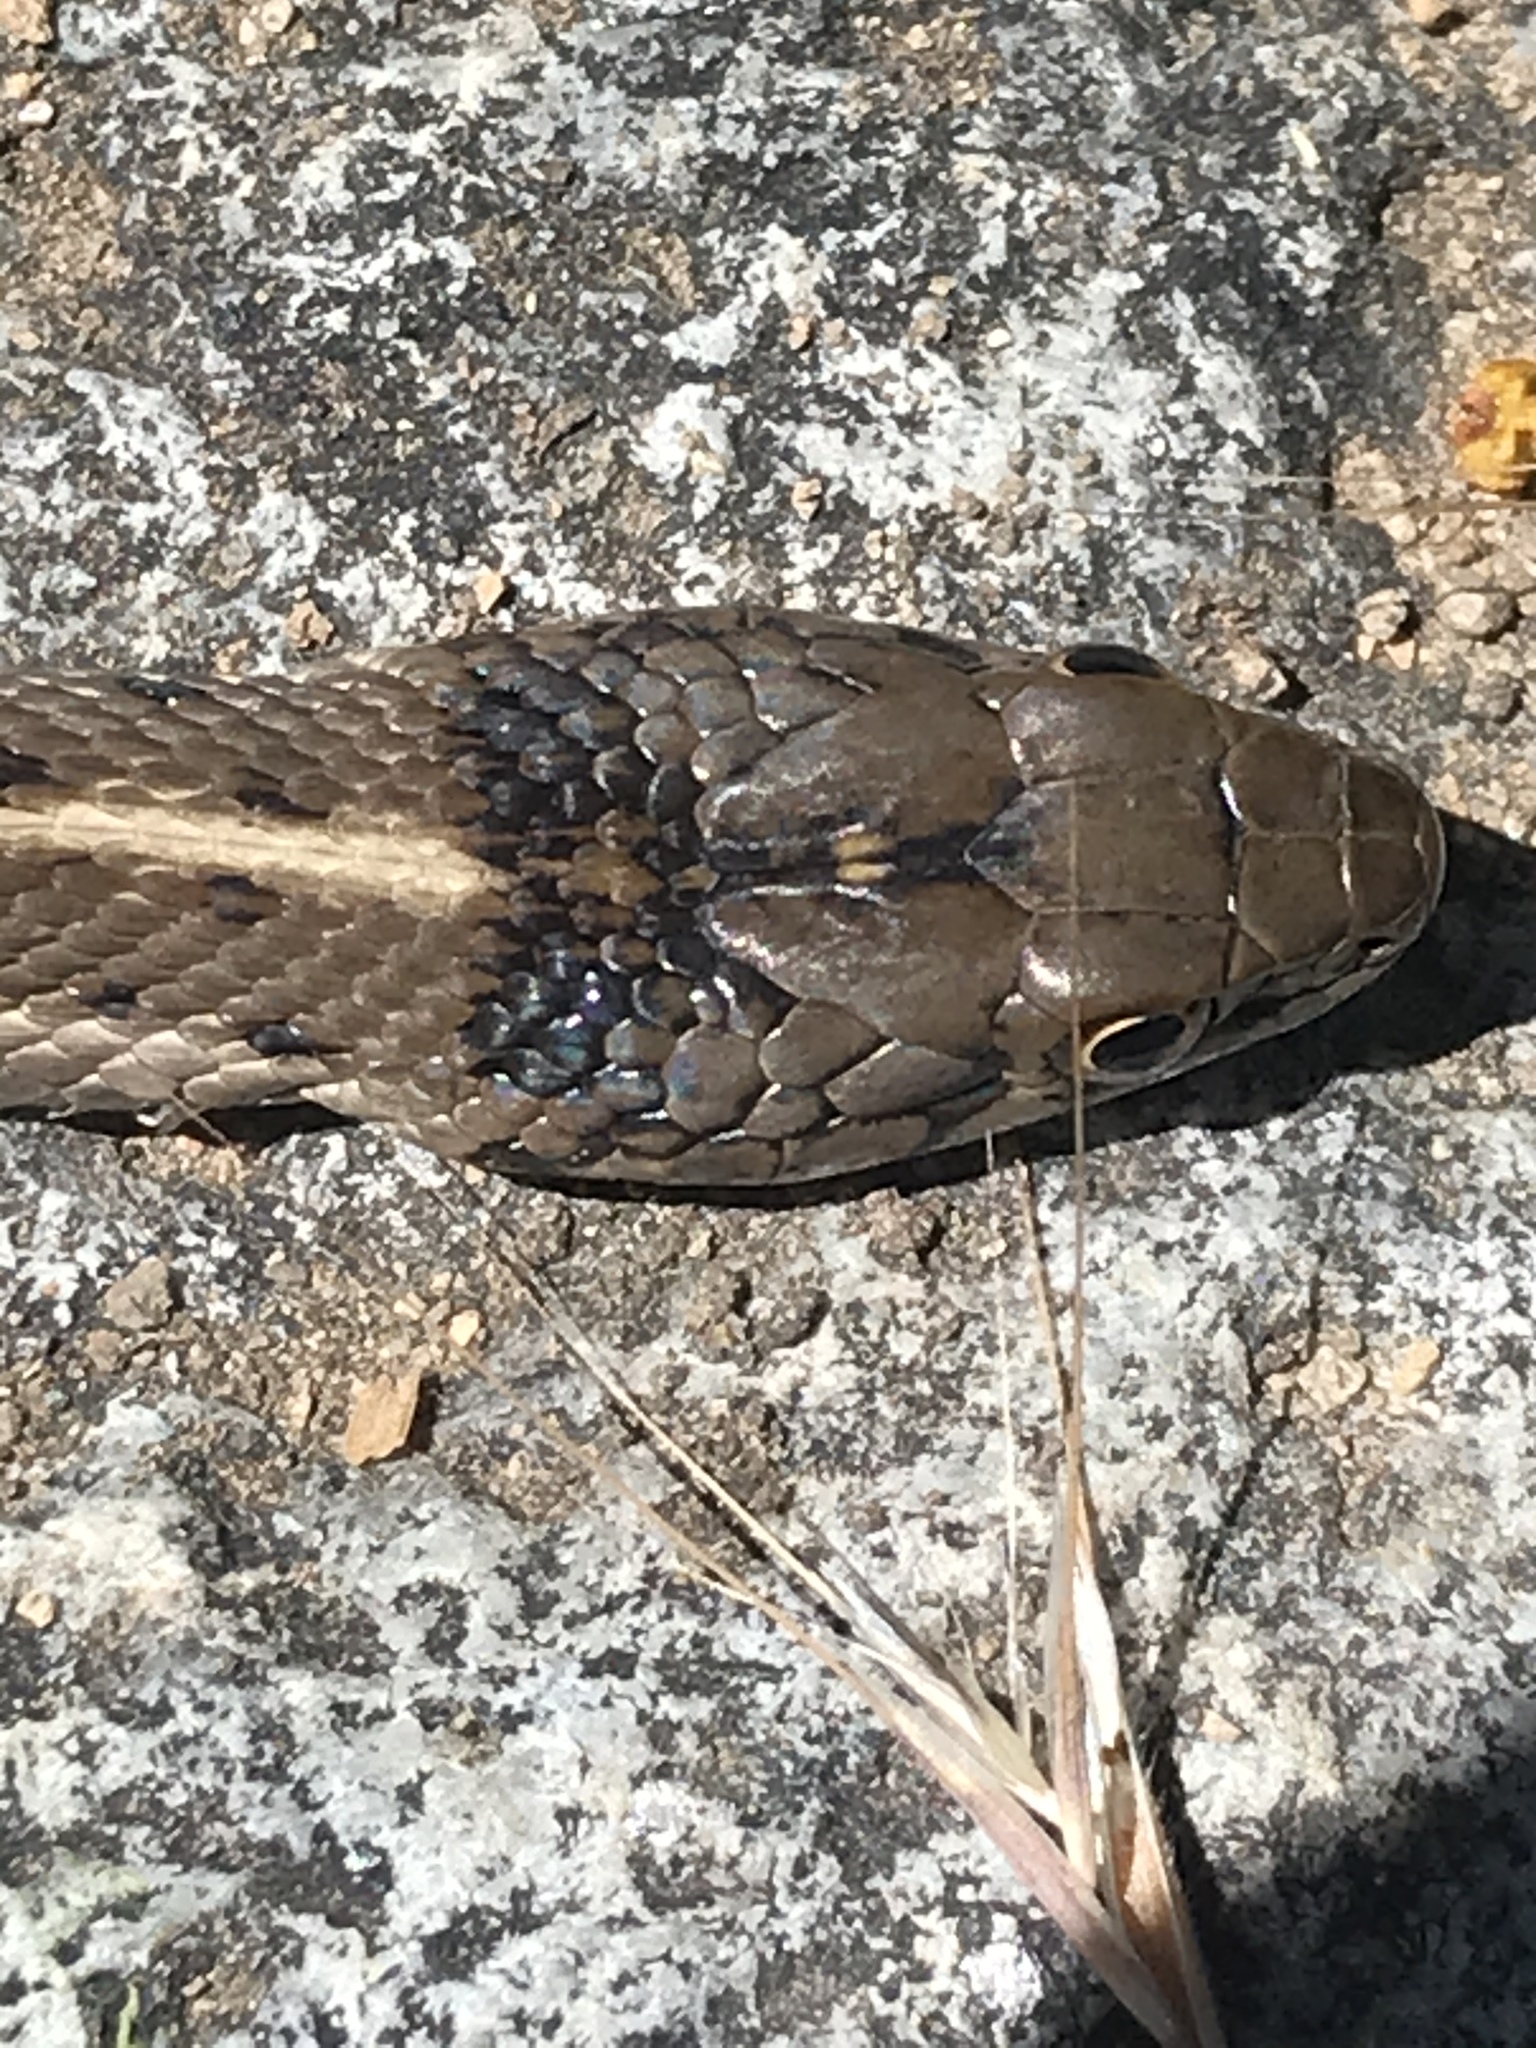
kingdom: Animalia
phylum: Chordata
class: Squamata
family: Colubridae
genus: Thamnophis
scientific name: Thamnophis elegans
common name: Western terrestrial garter snake
